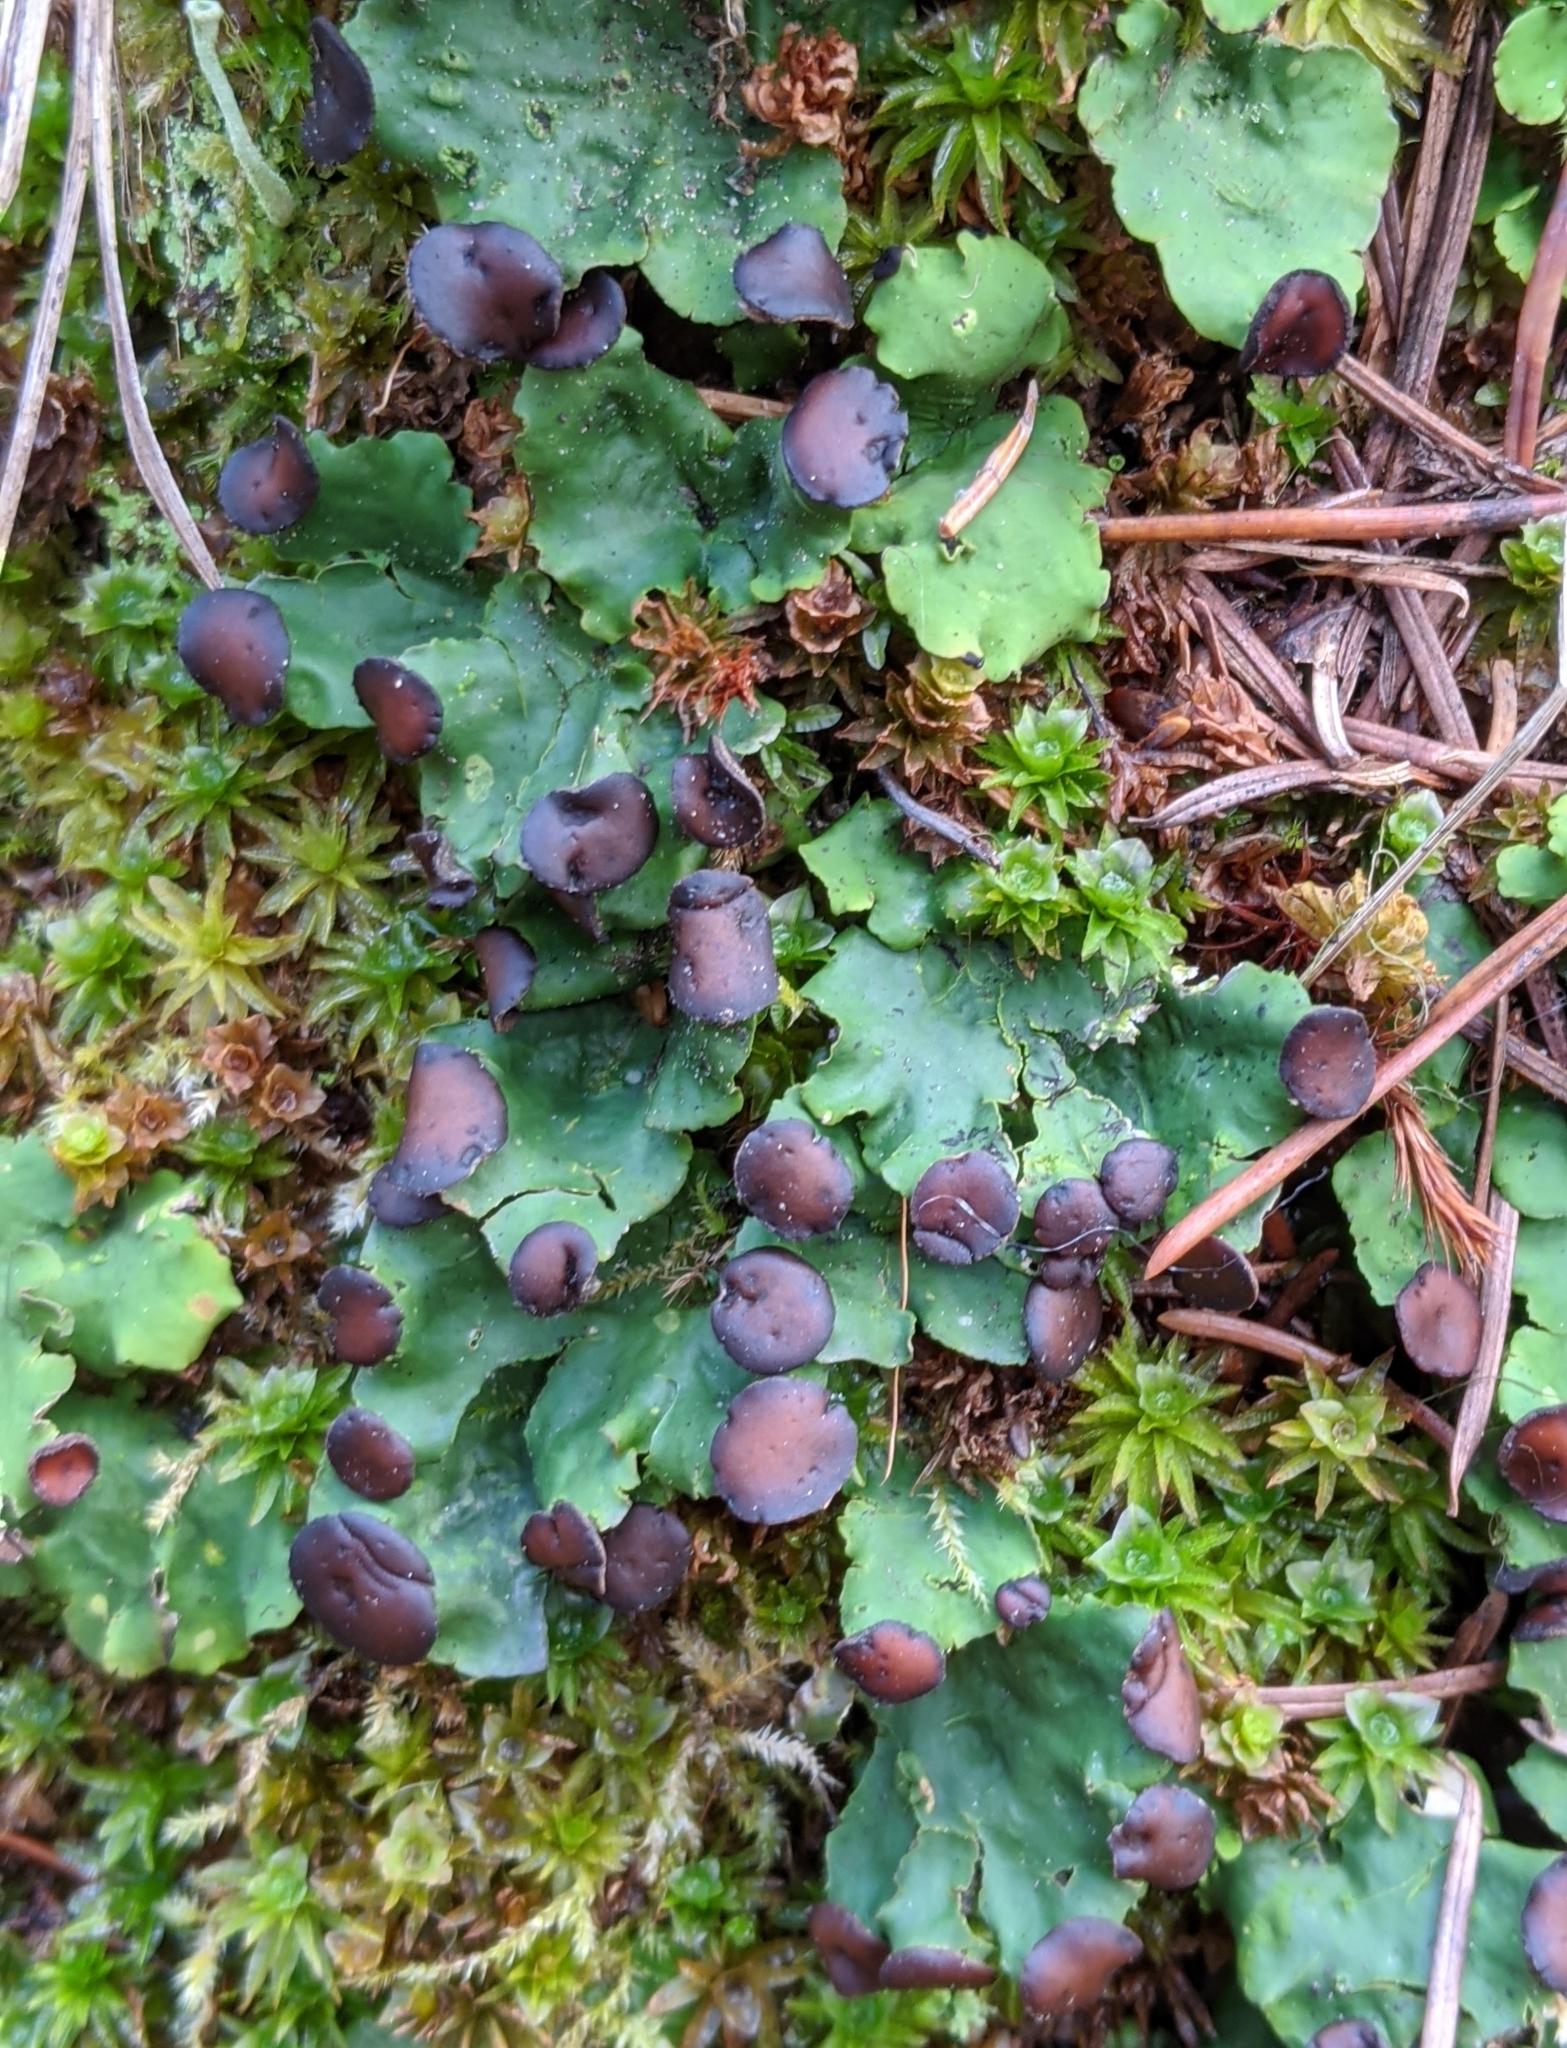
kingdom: Fungi
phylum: Ascomycota
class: Lecanoromycetes
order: Peltigerales
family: Peltigeraceae
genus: Peltigera
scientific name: Peltigera venosa
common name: Pixie gowns lichen
